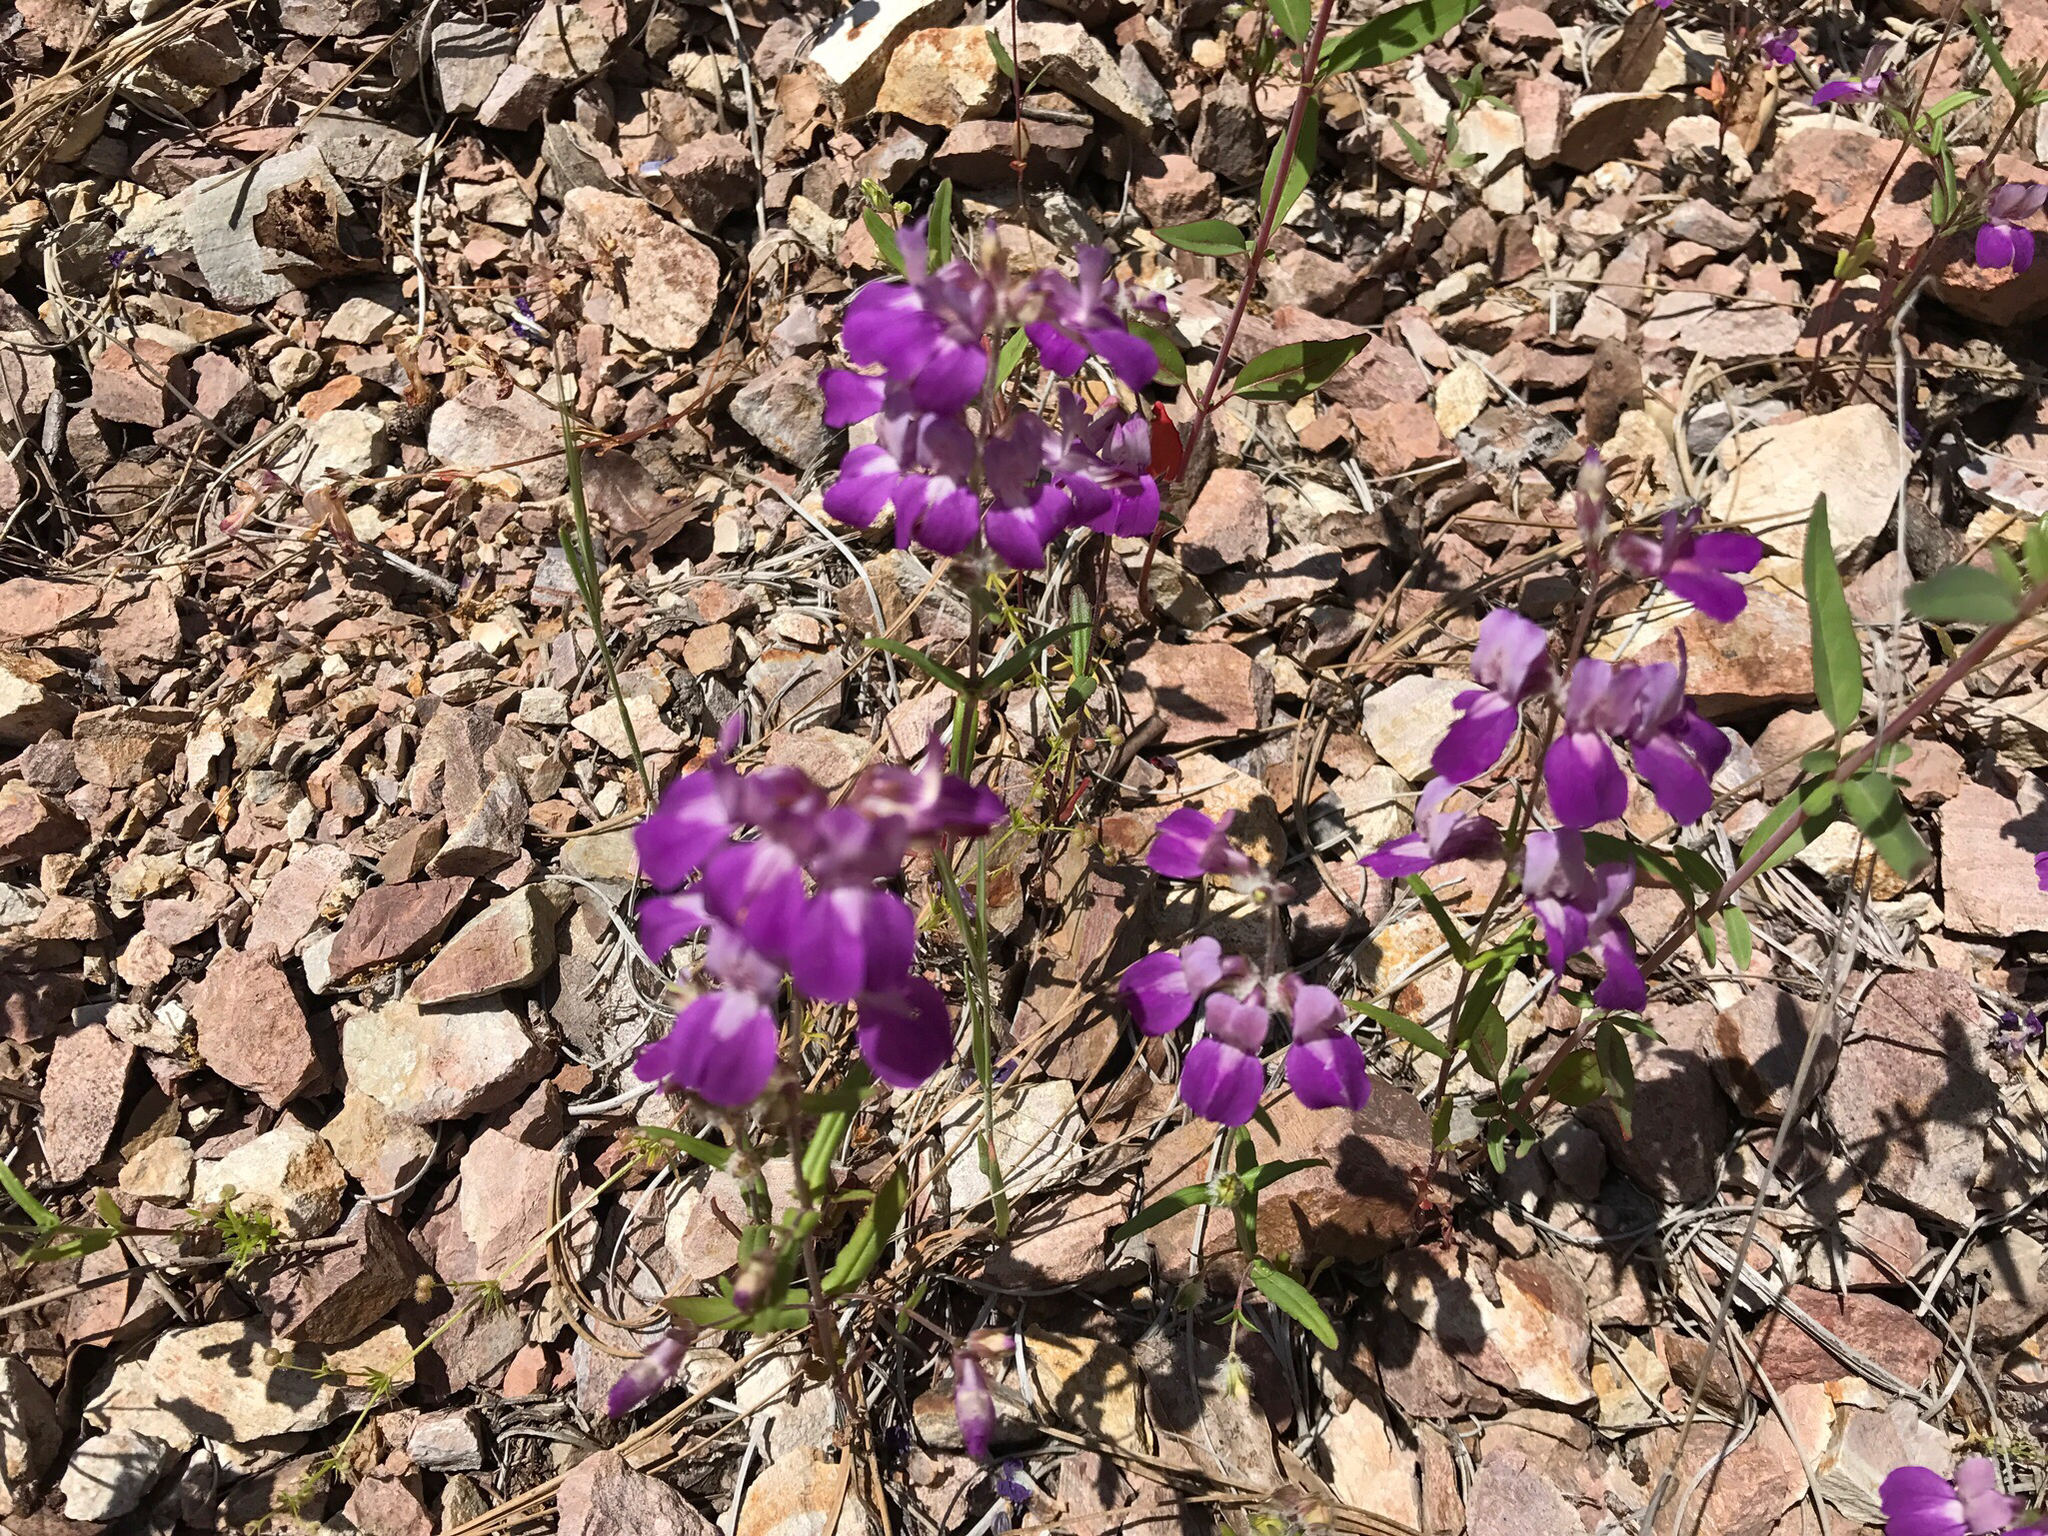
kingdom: Plantae
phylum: Tracheophyta
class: Magnoliopsida
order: Lamiales
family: Plantaginaceae
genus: Collinsia
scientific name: Collinsia heterophylla
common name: Chinese-houses
